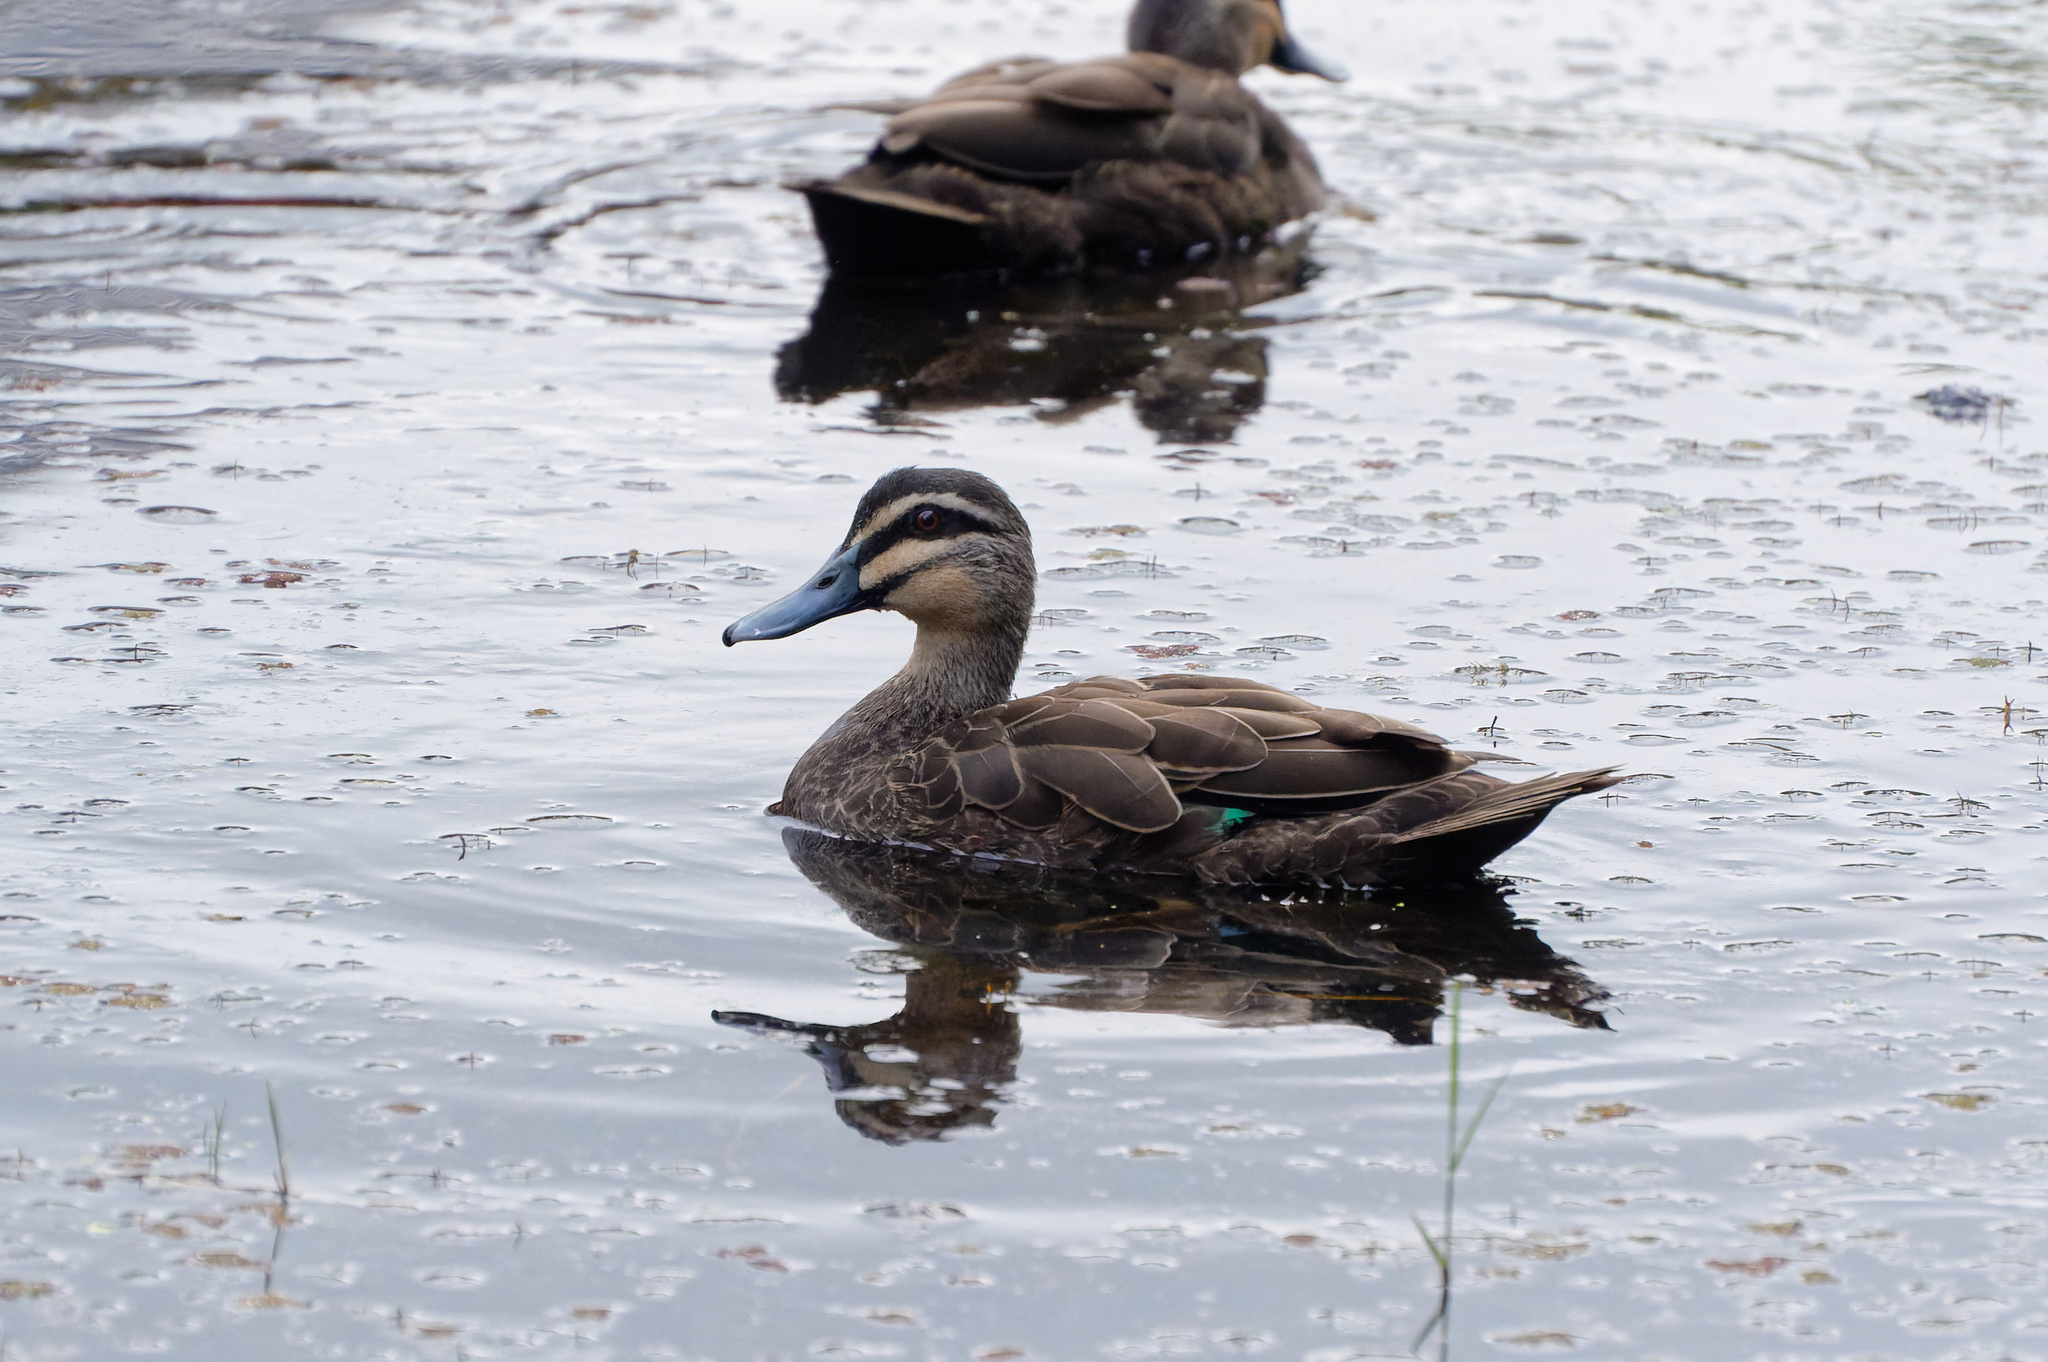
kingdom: Animalia
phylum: Chordata
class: Aves
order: Anseriformes
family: Anatidae
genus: Anas
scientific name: Anas superciliosa
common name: Pacific black duck
